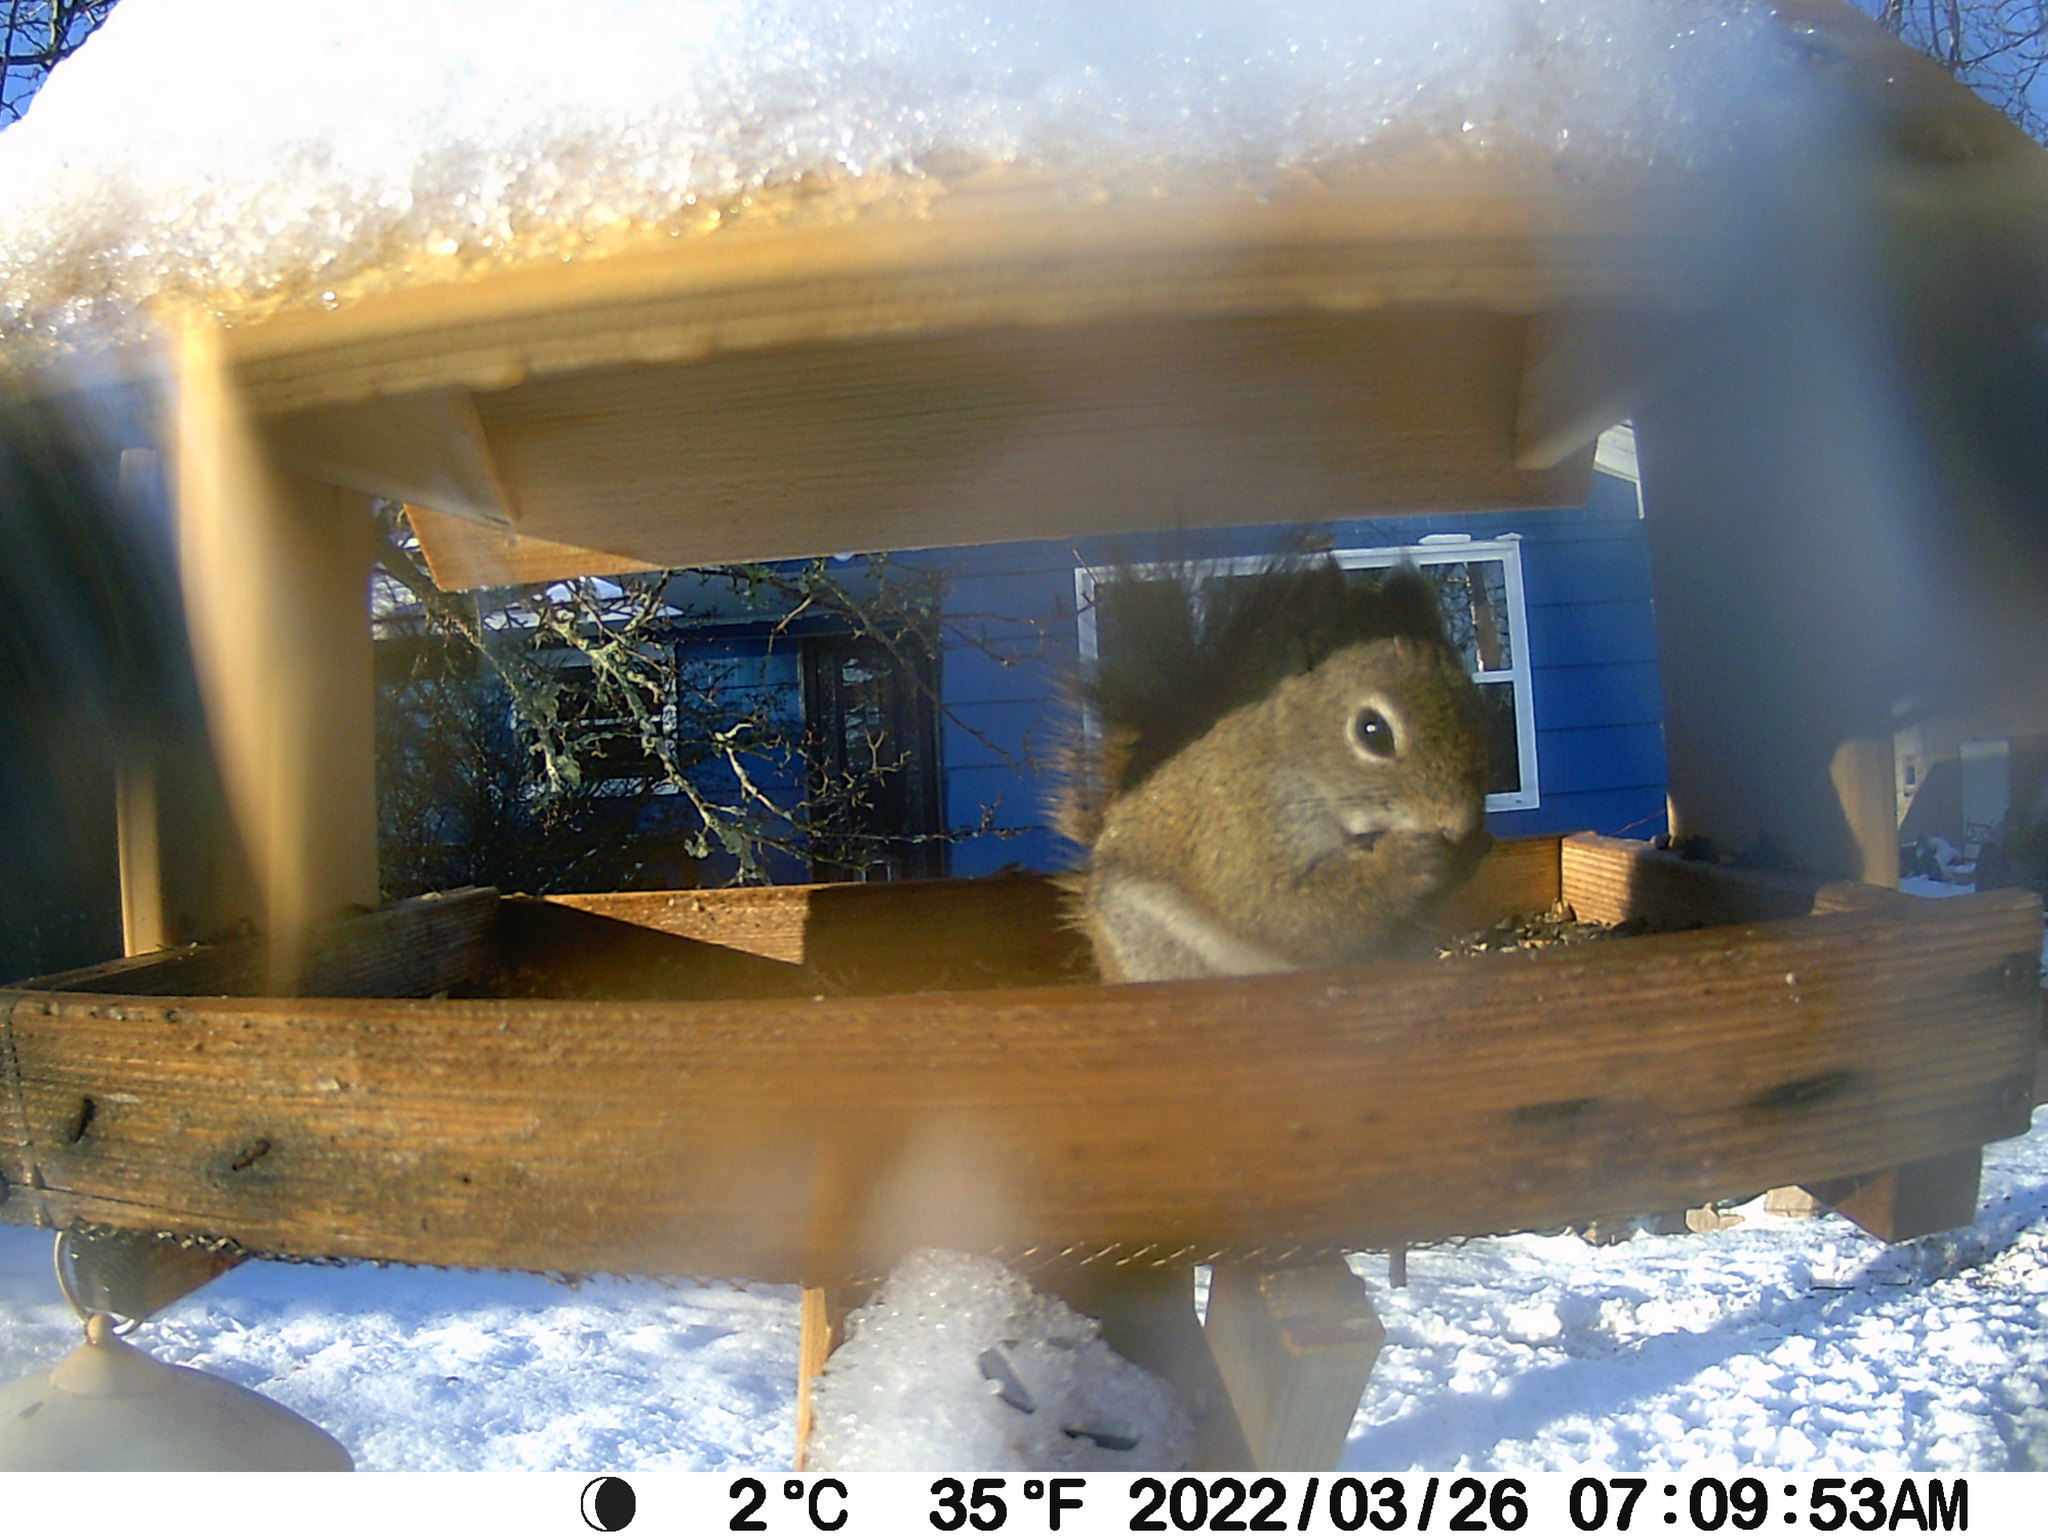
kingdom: Animalia
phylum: Chordata
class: Mammalia
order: Rodentia
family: Sciuridae
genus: Tamiasciurus
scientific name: Tamiasciurus hudsonicus
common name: Red squirrel
